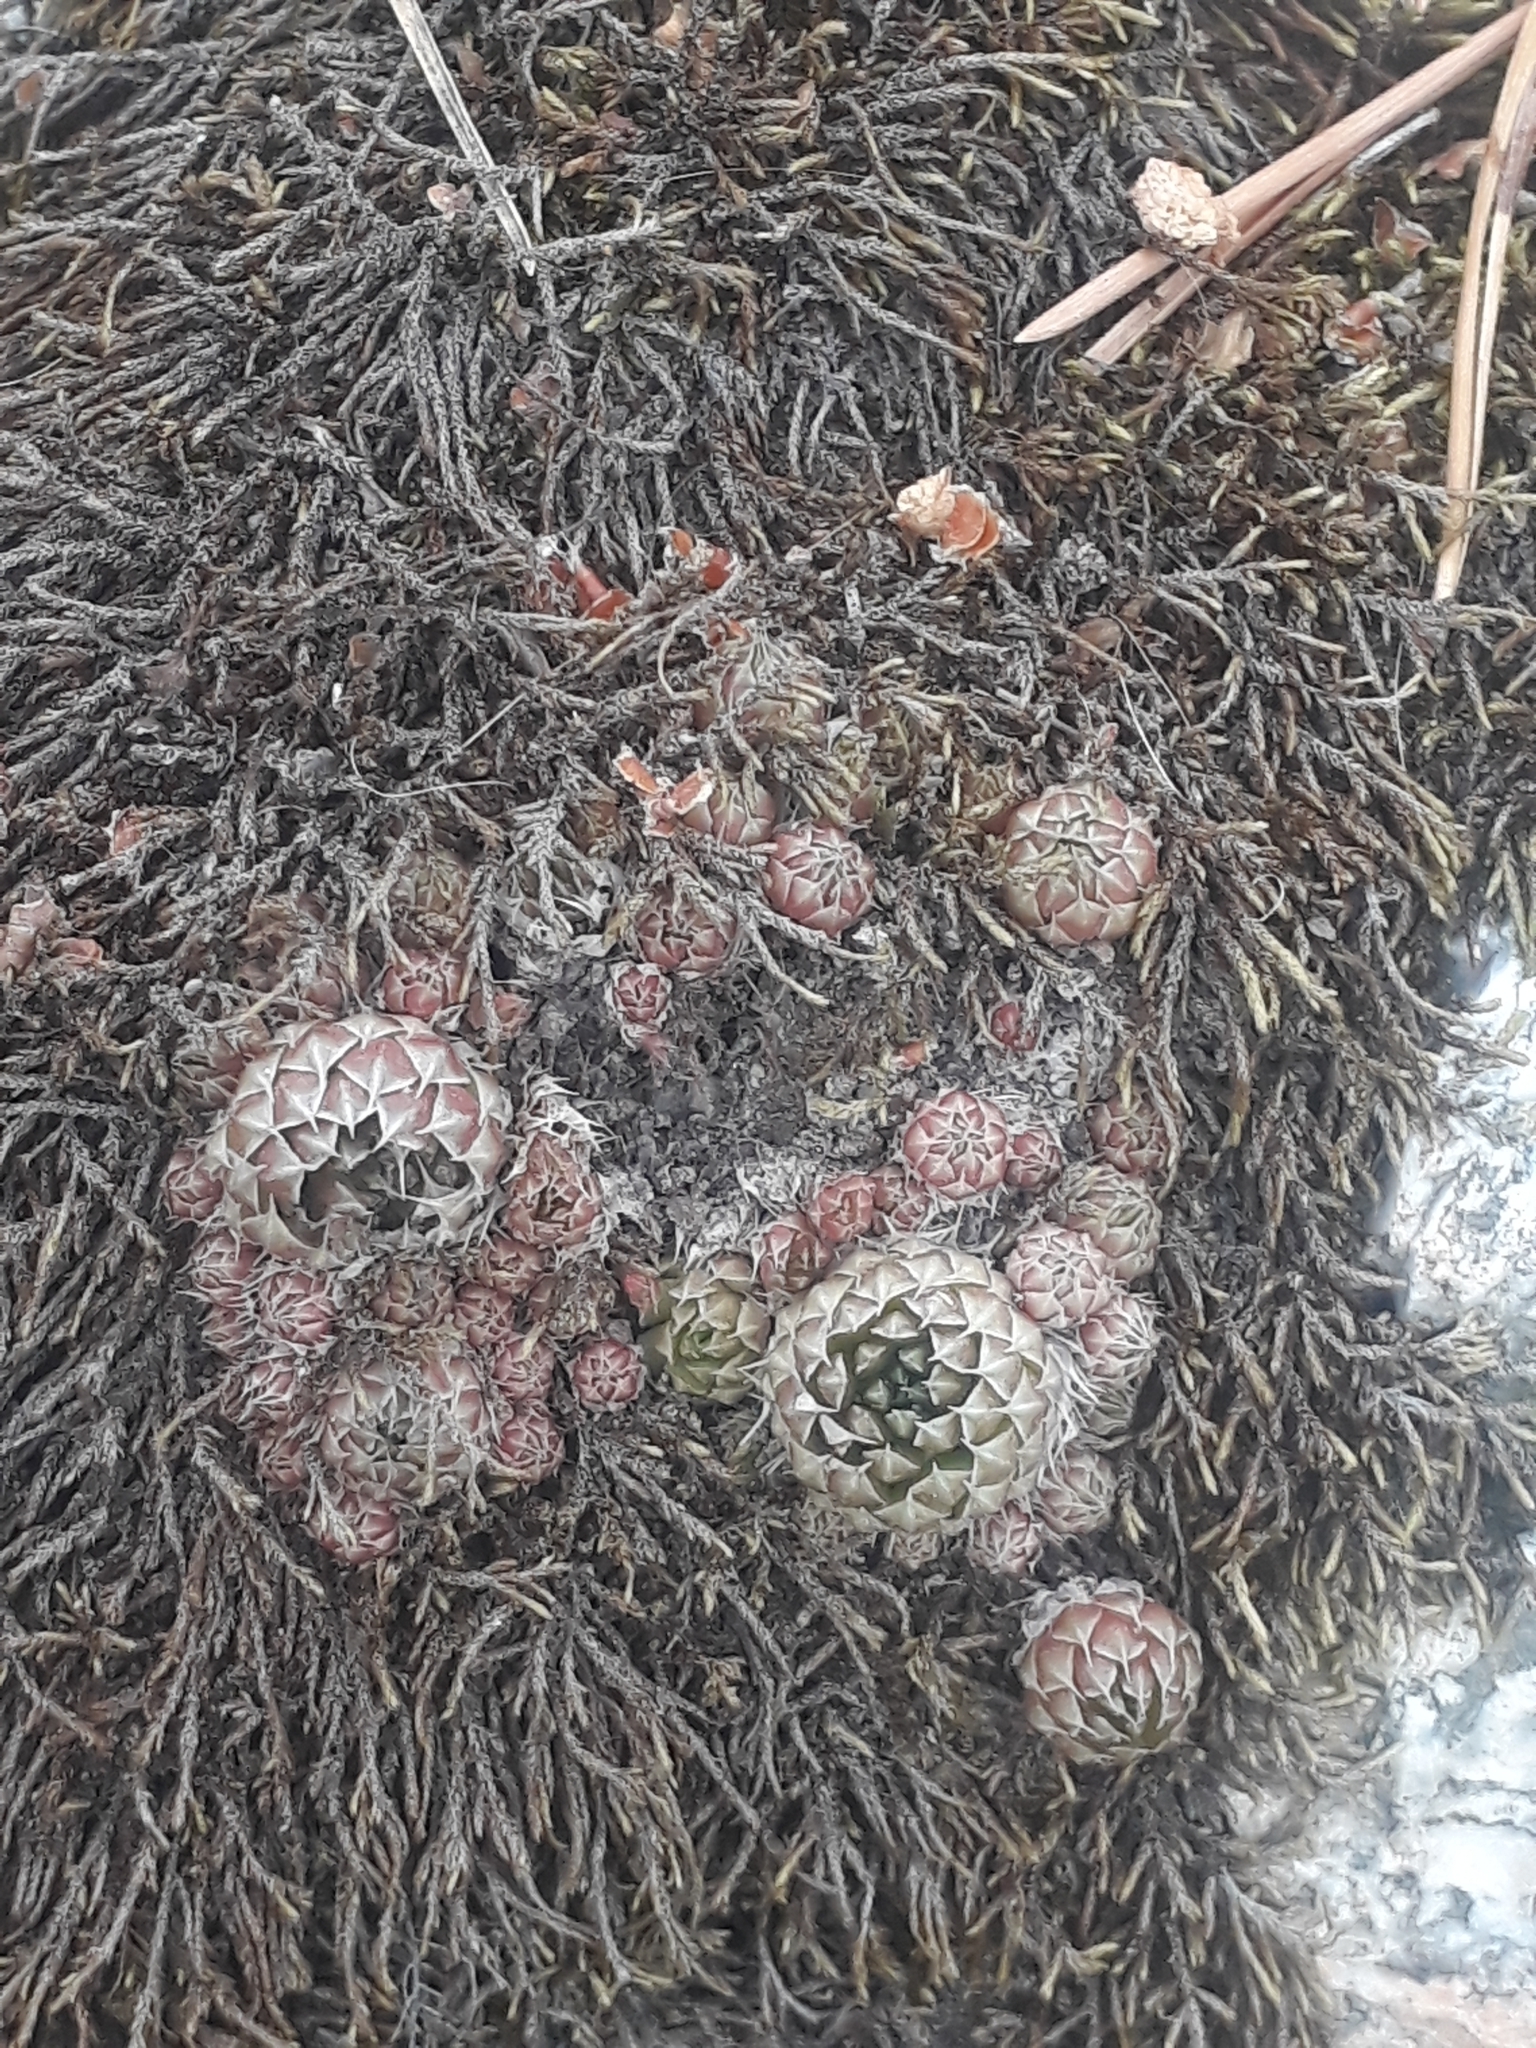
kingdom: Plantae
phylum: Tracheophyta
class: Magnoliopsida
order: Saxifragales
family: Crassulaceae
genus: Orostachys
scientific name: Orostachys spinosa
